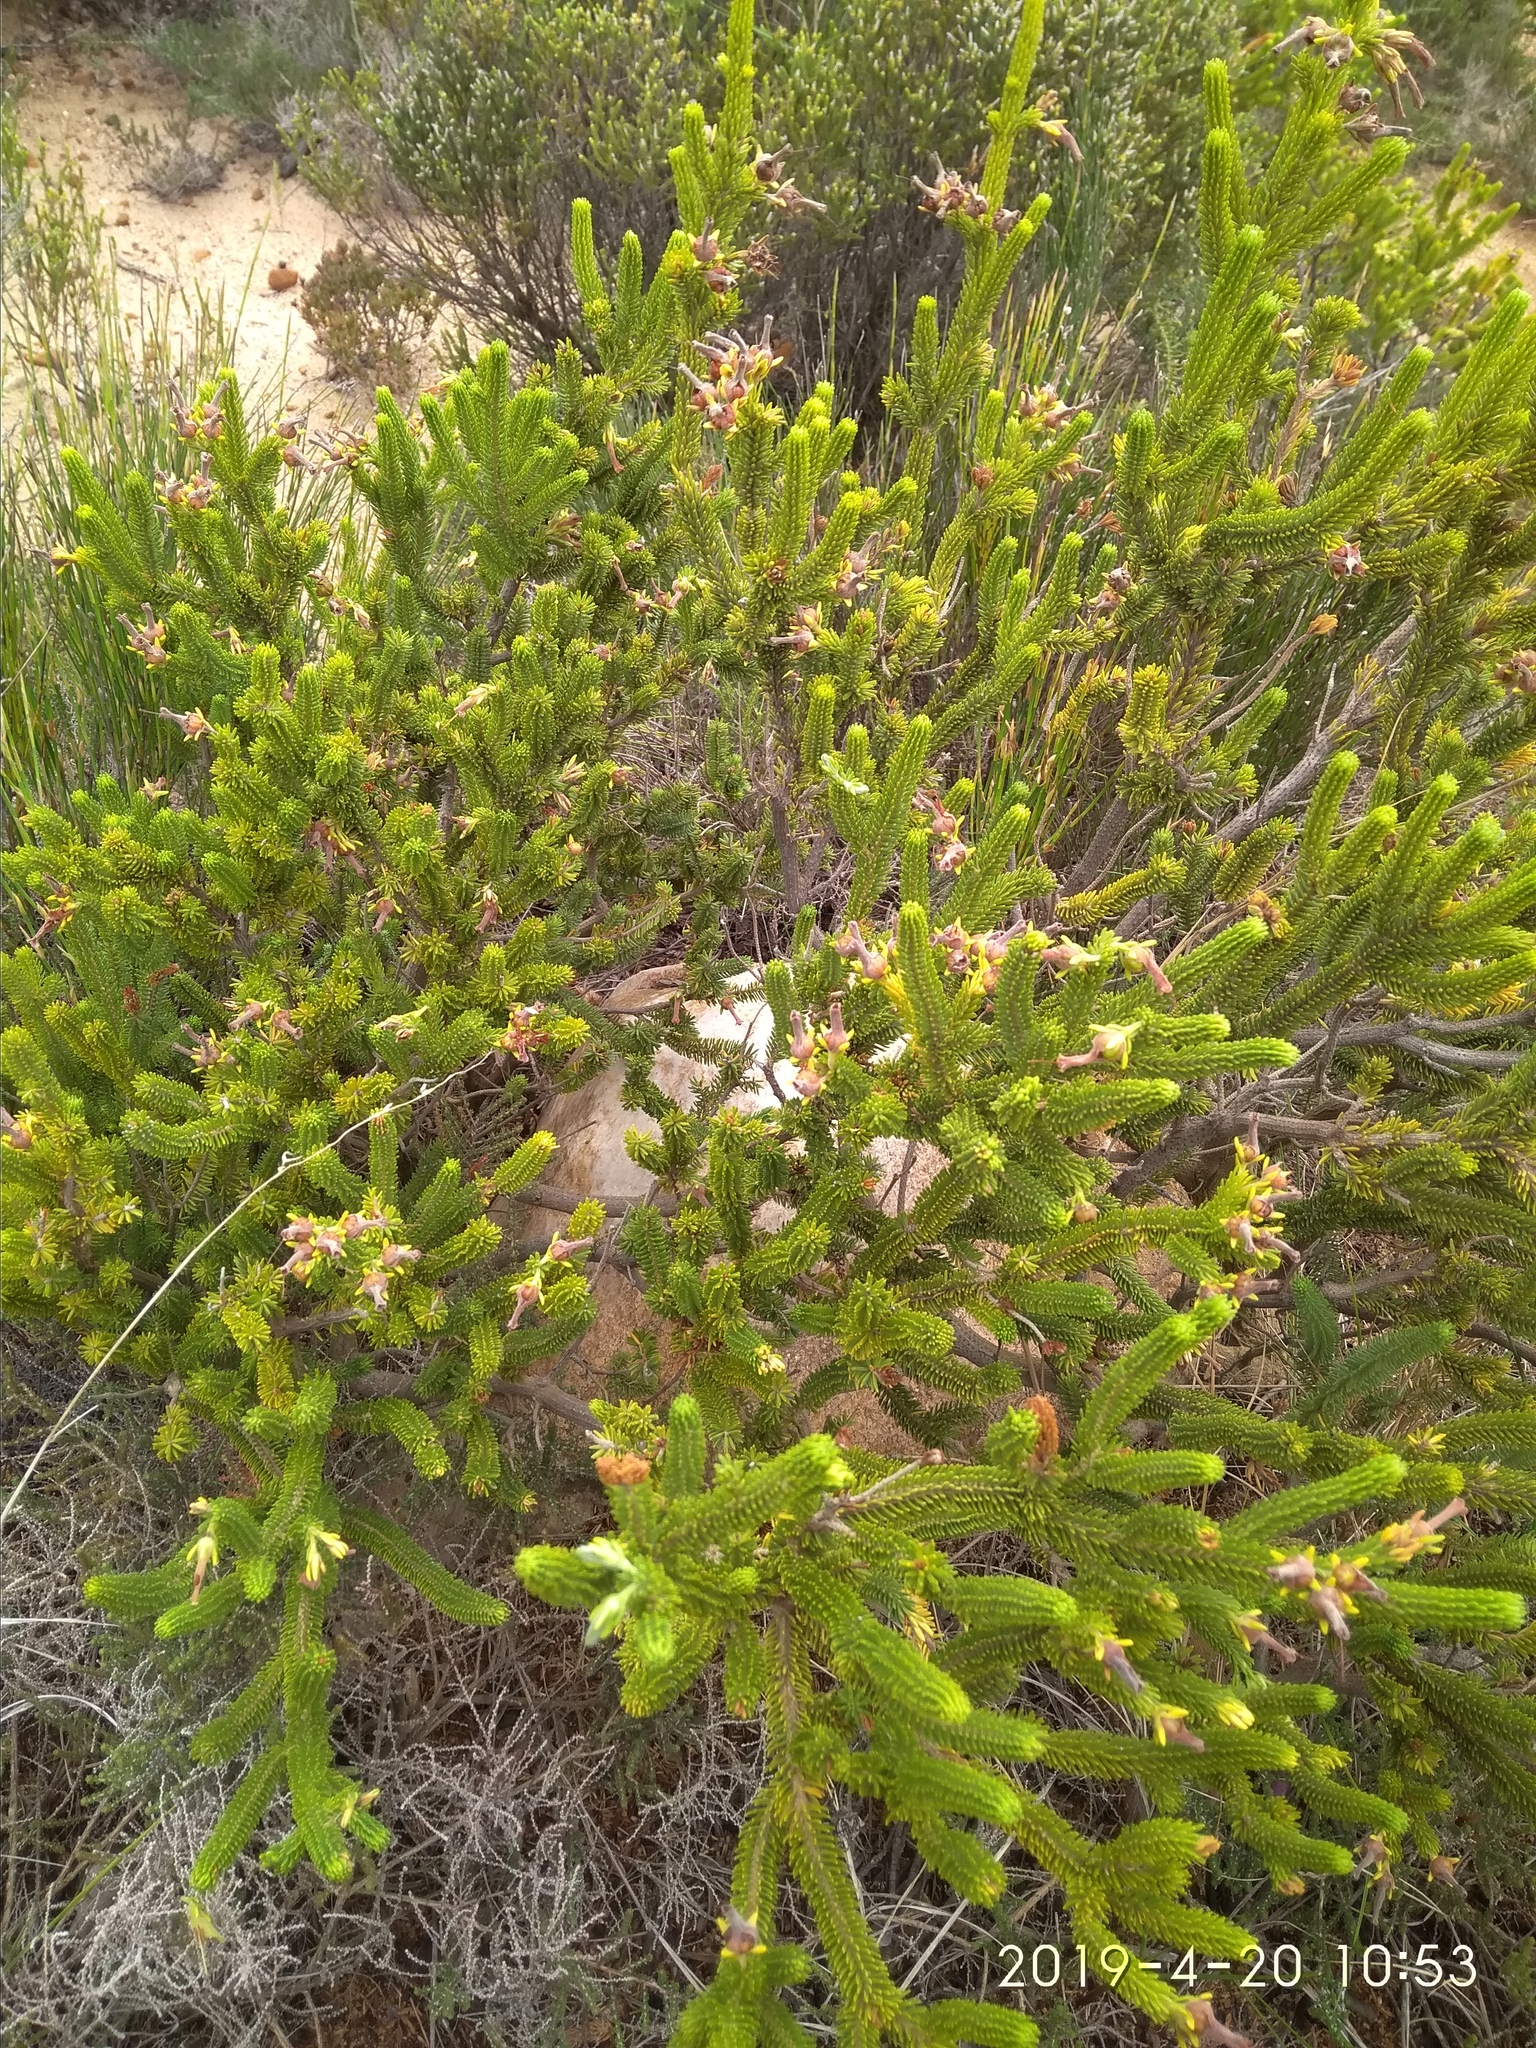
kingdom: Plantae
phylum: Tracheophyta
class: Magnoliopsida
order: Ericales
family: Ericaceae
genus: Erica
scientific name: Erica brachialis
